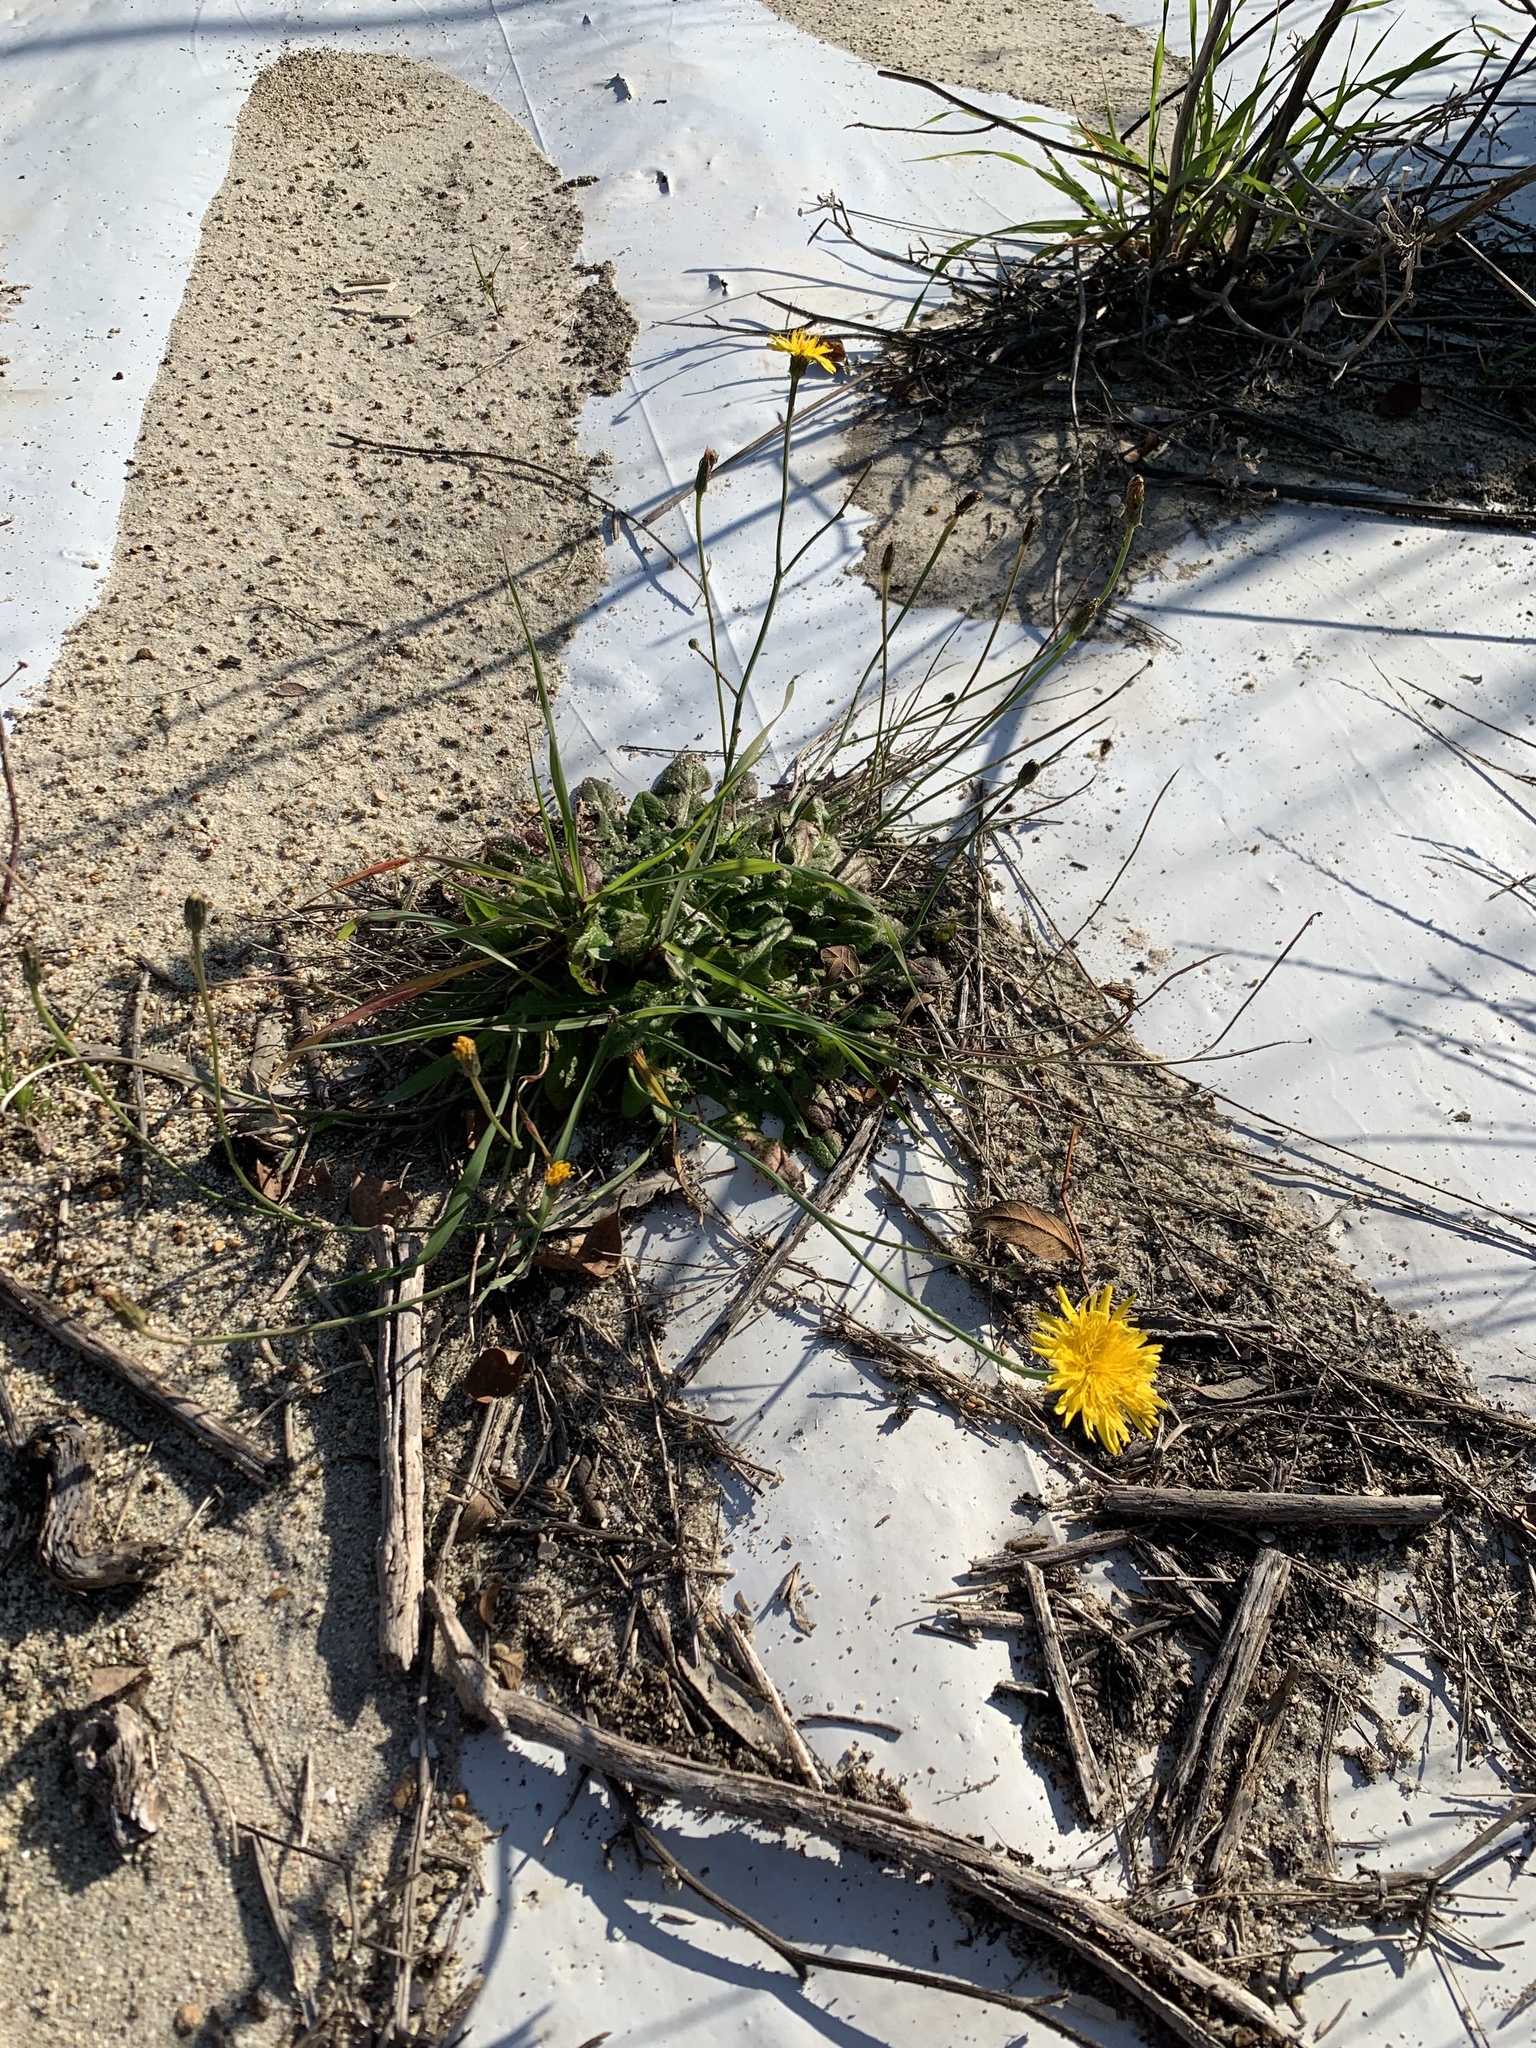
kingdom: Plantae
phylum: Tracheophyta
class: Magnoliopsida
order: Asterales
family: Asteraceae
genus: Hypochaeris
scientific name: Hypochaeris radicata
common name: Flatweed
